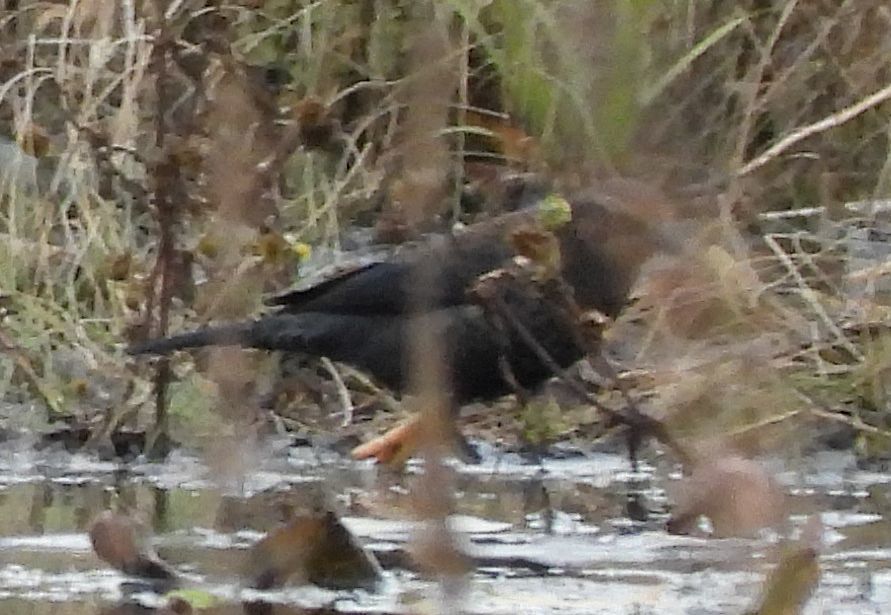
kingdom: Animalia
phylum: Chordata
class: Aves
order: Passeriformes
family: Icteridae
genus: Euphagus
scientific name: Euphagus carolinus
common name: Rusty blackbird
